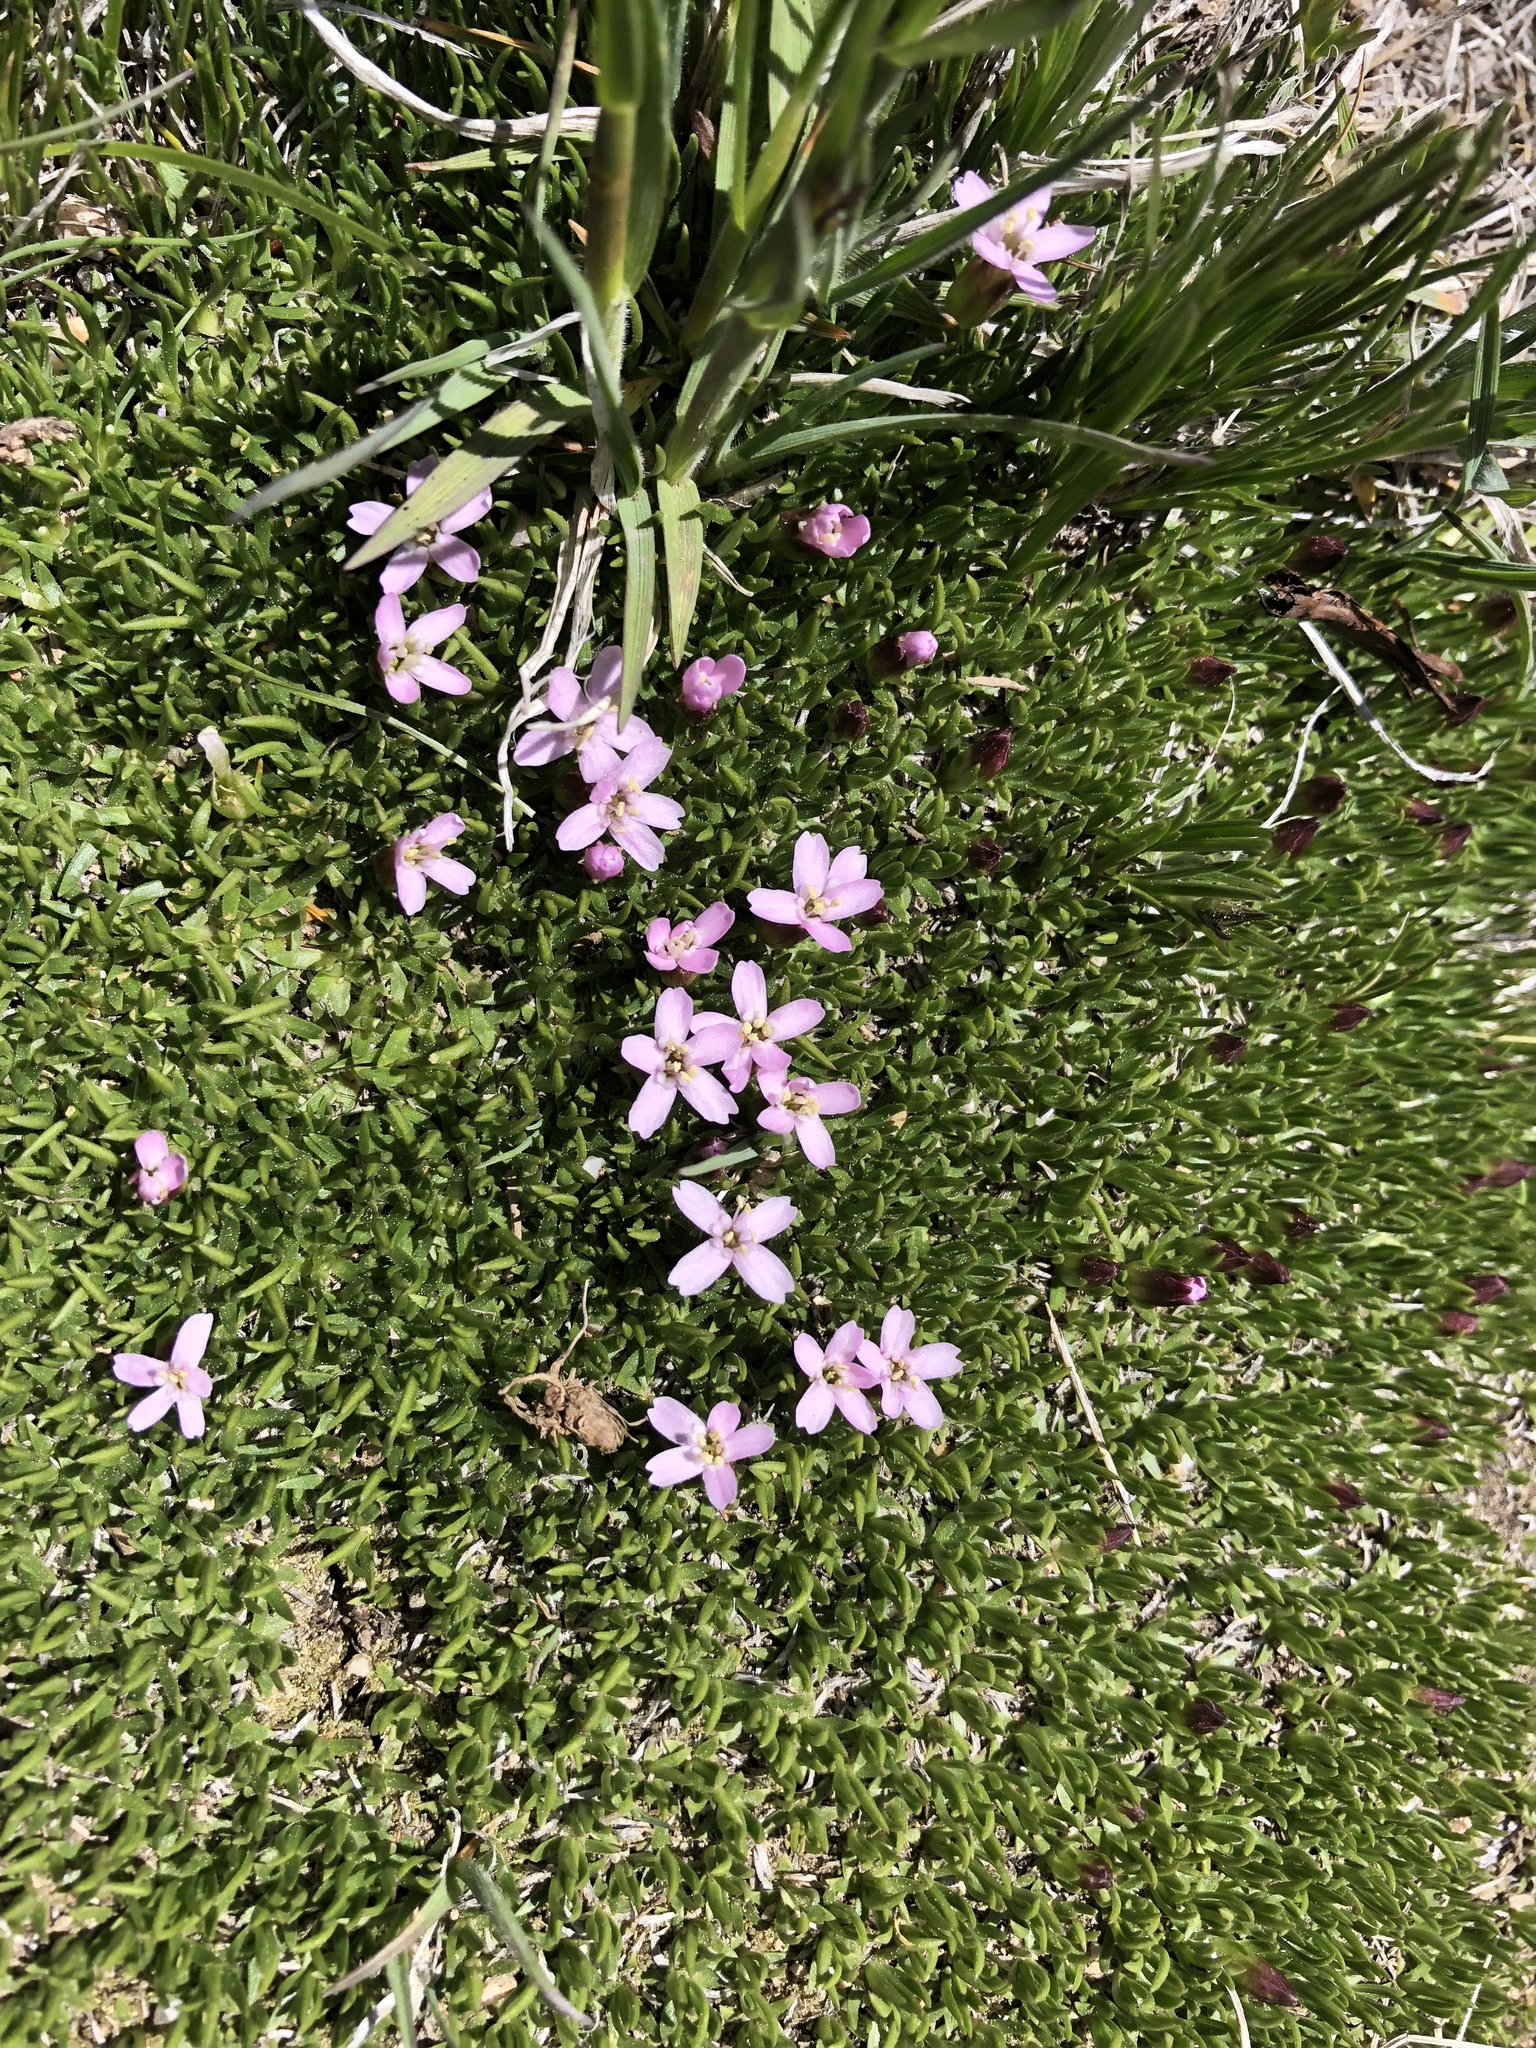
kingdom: Plantae
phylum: Tracheophyta
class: Magnoliopsida
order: Caryophyllales
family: Caryophyllaceae
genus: Silene
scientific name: Silene acaulis
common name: Moss campion
